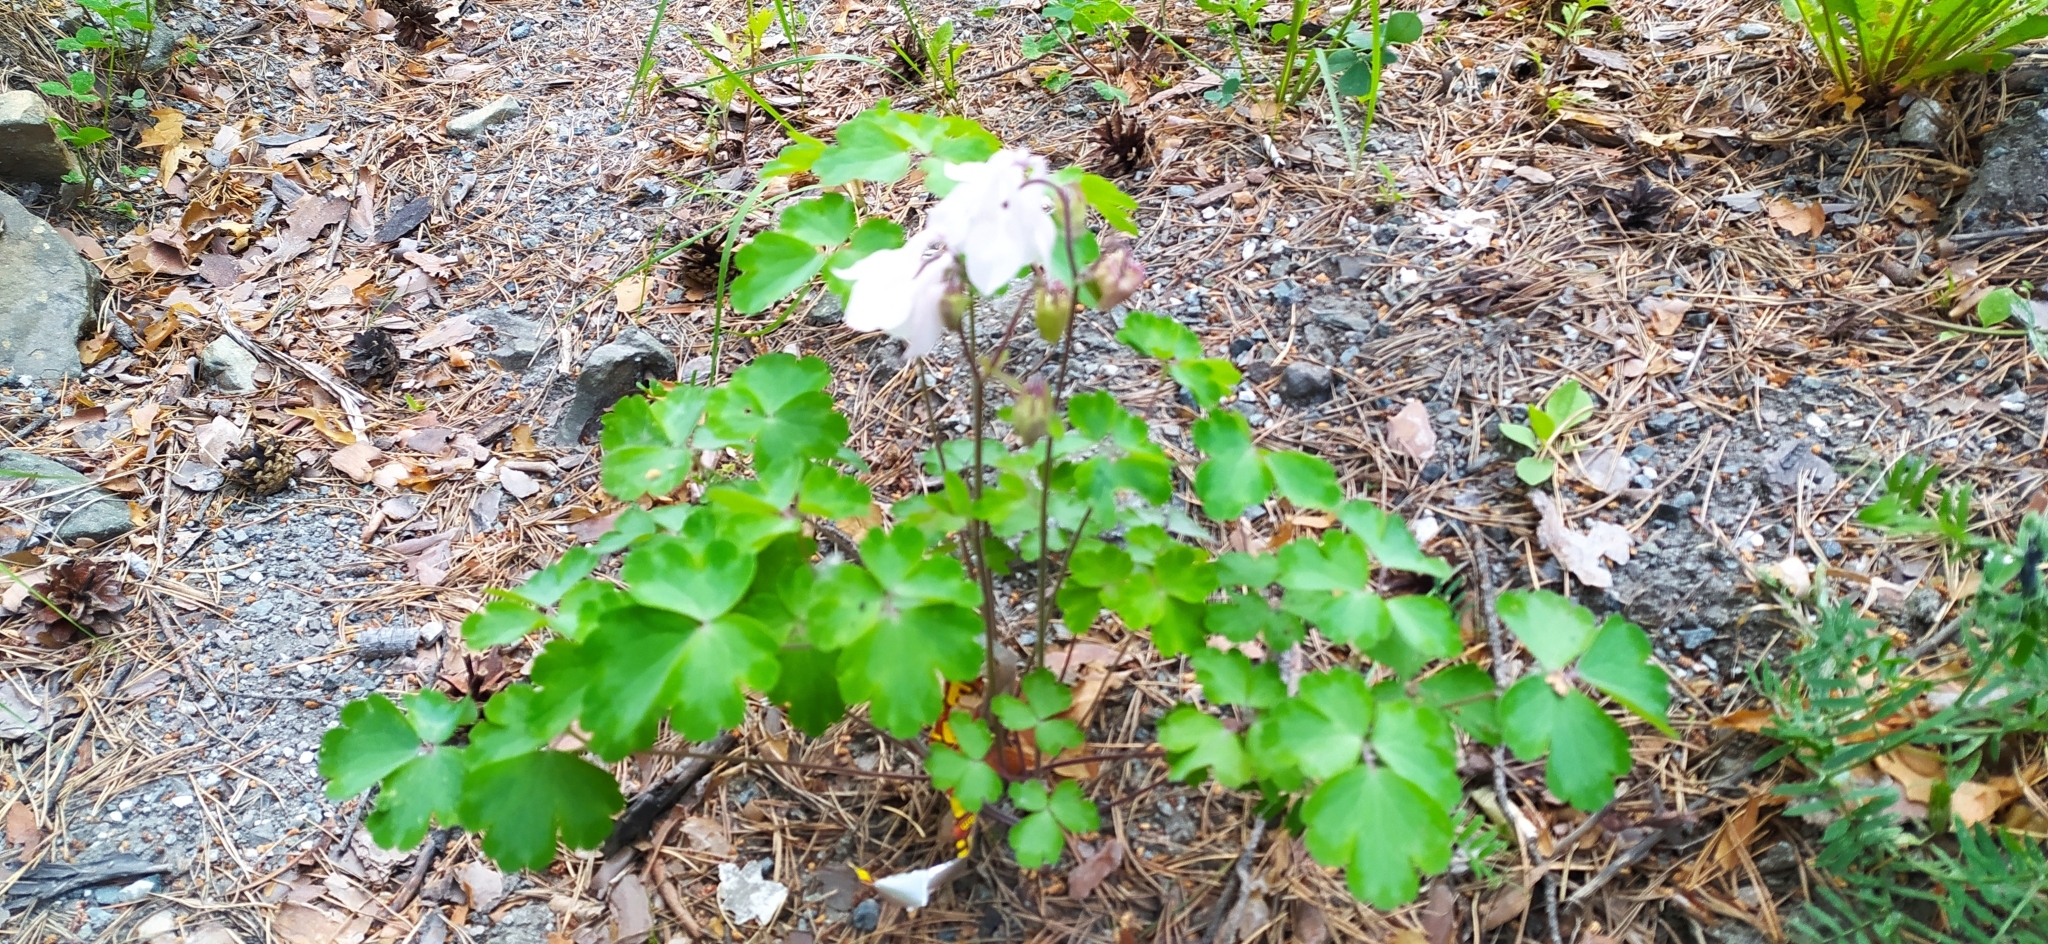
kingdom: Plantae
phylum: Tracheophyta
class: Magnoliopsida
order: Ranunculales
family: Ranunculaceae
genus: Aquilegia
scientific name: Aquilegia vulgaris
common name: Columbine
